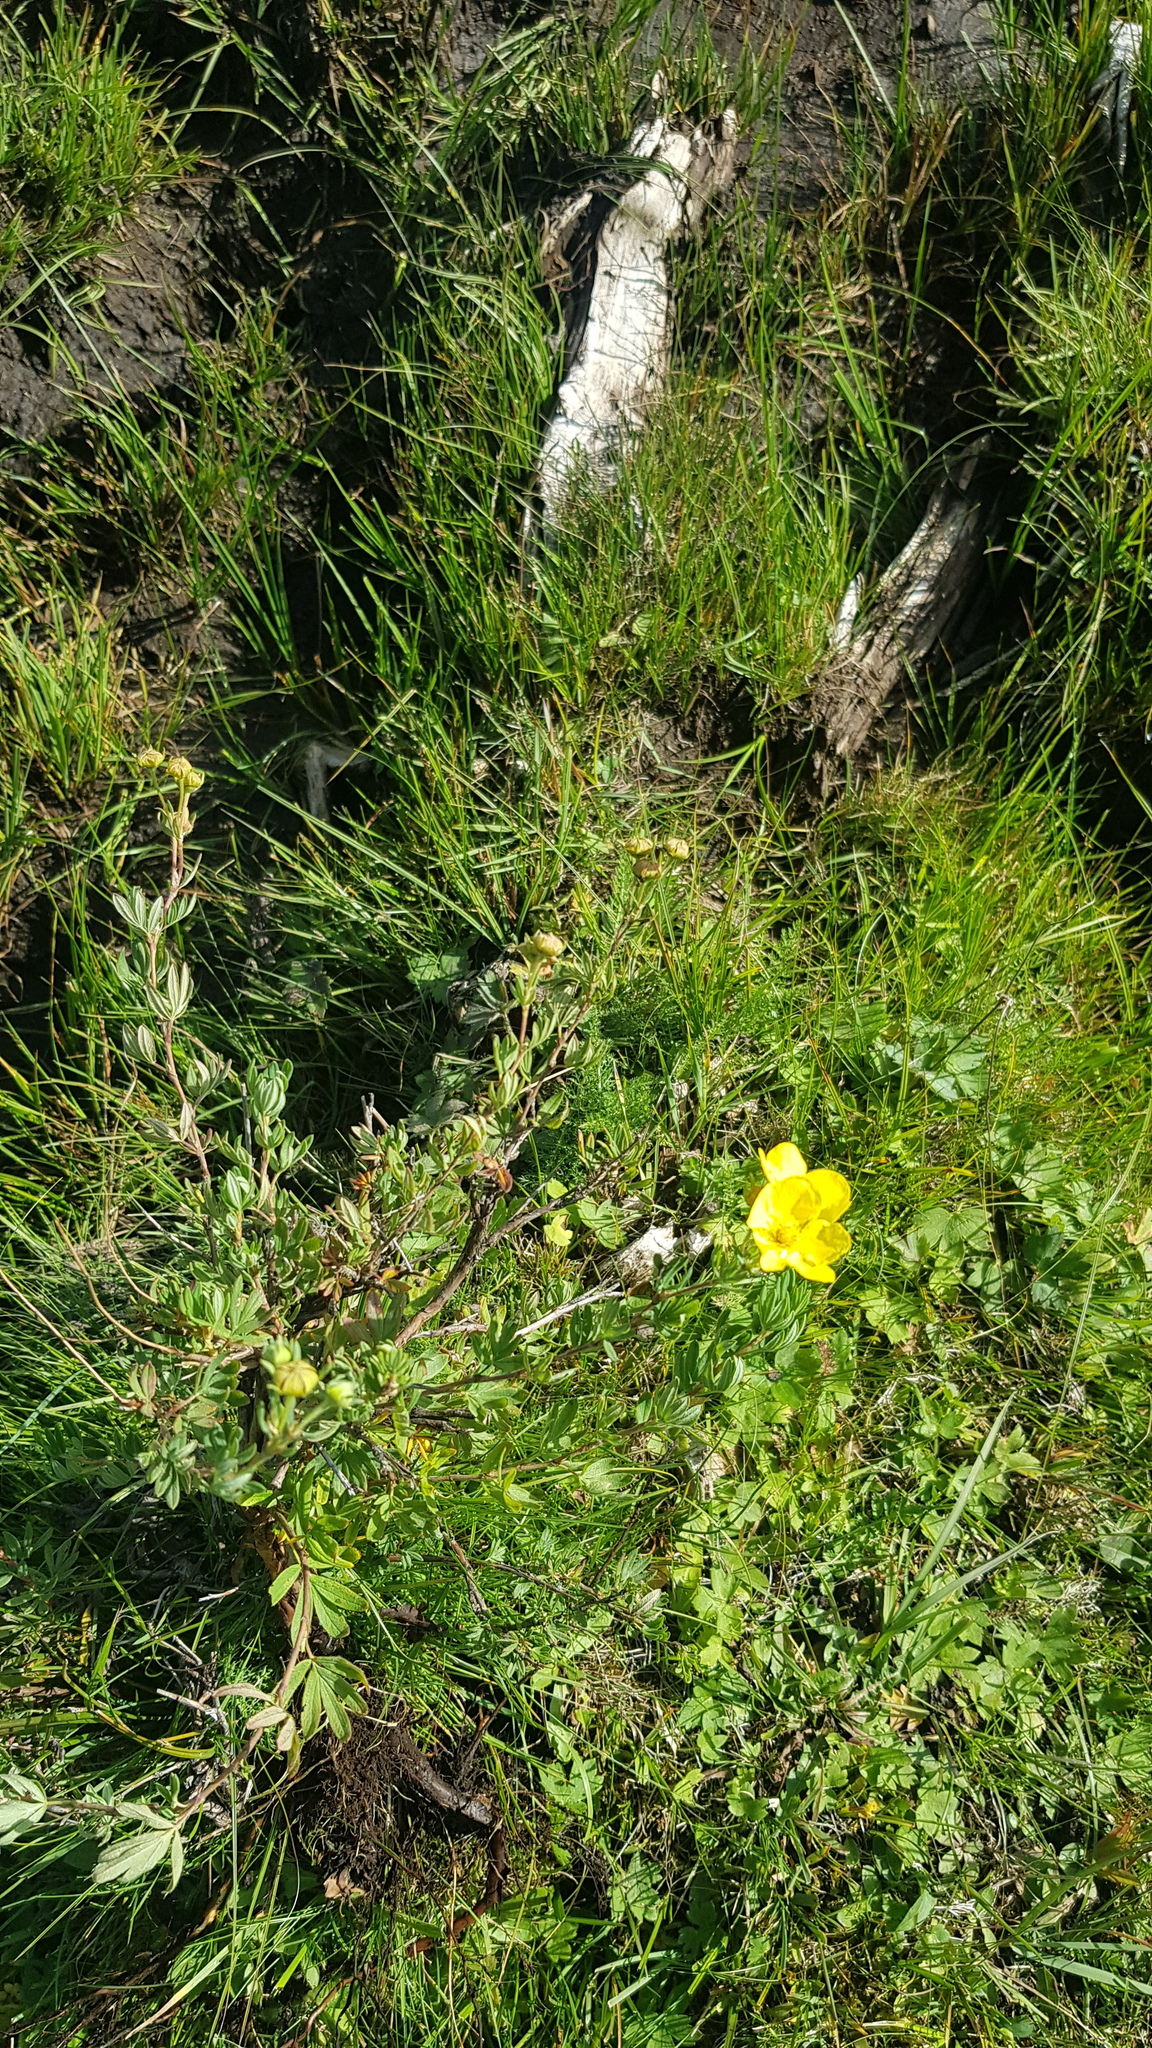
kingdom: Plantae
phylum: Tracheophyta
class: Magnoliopsida
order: Rosales
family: Rosaceae
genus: Dasiphora
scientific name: Dasiphora fruticosa
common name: Shrubby cinquefoil
